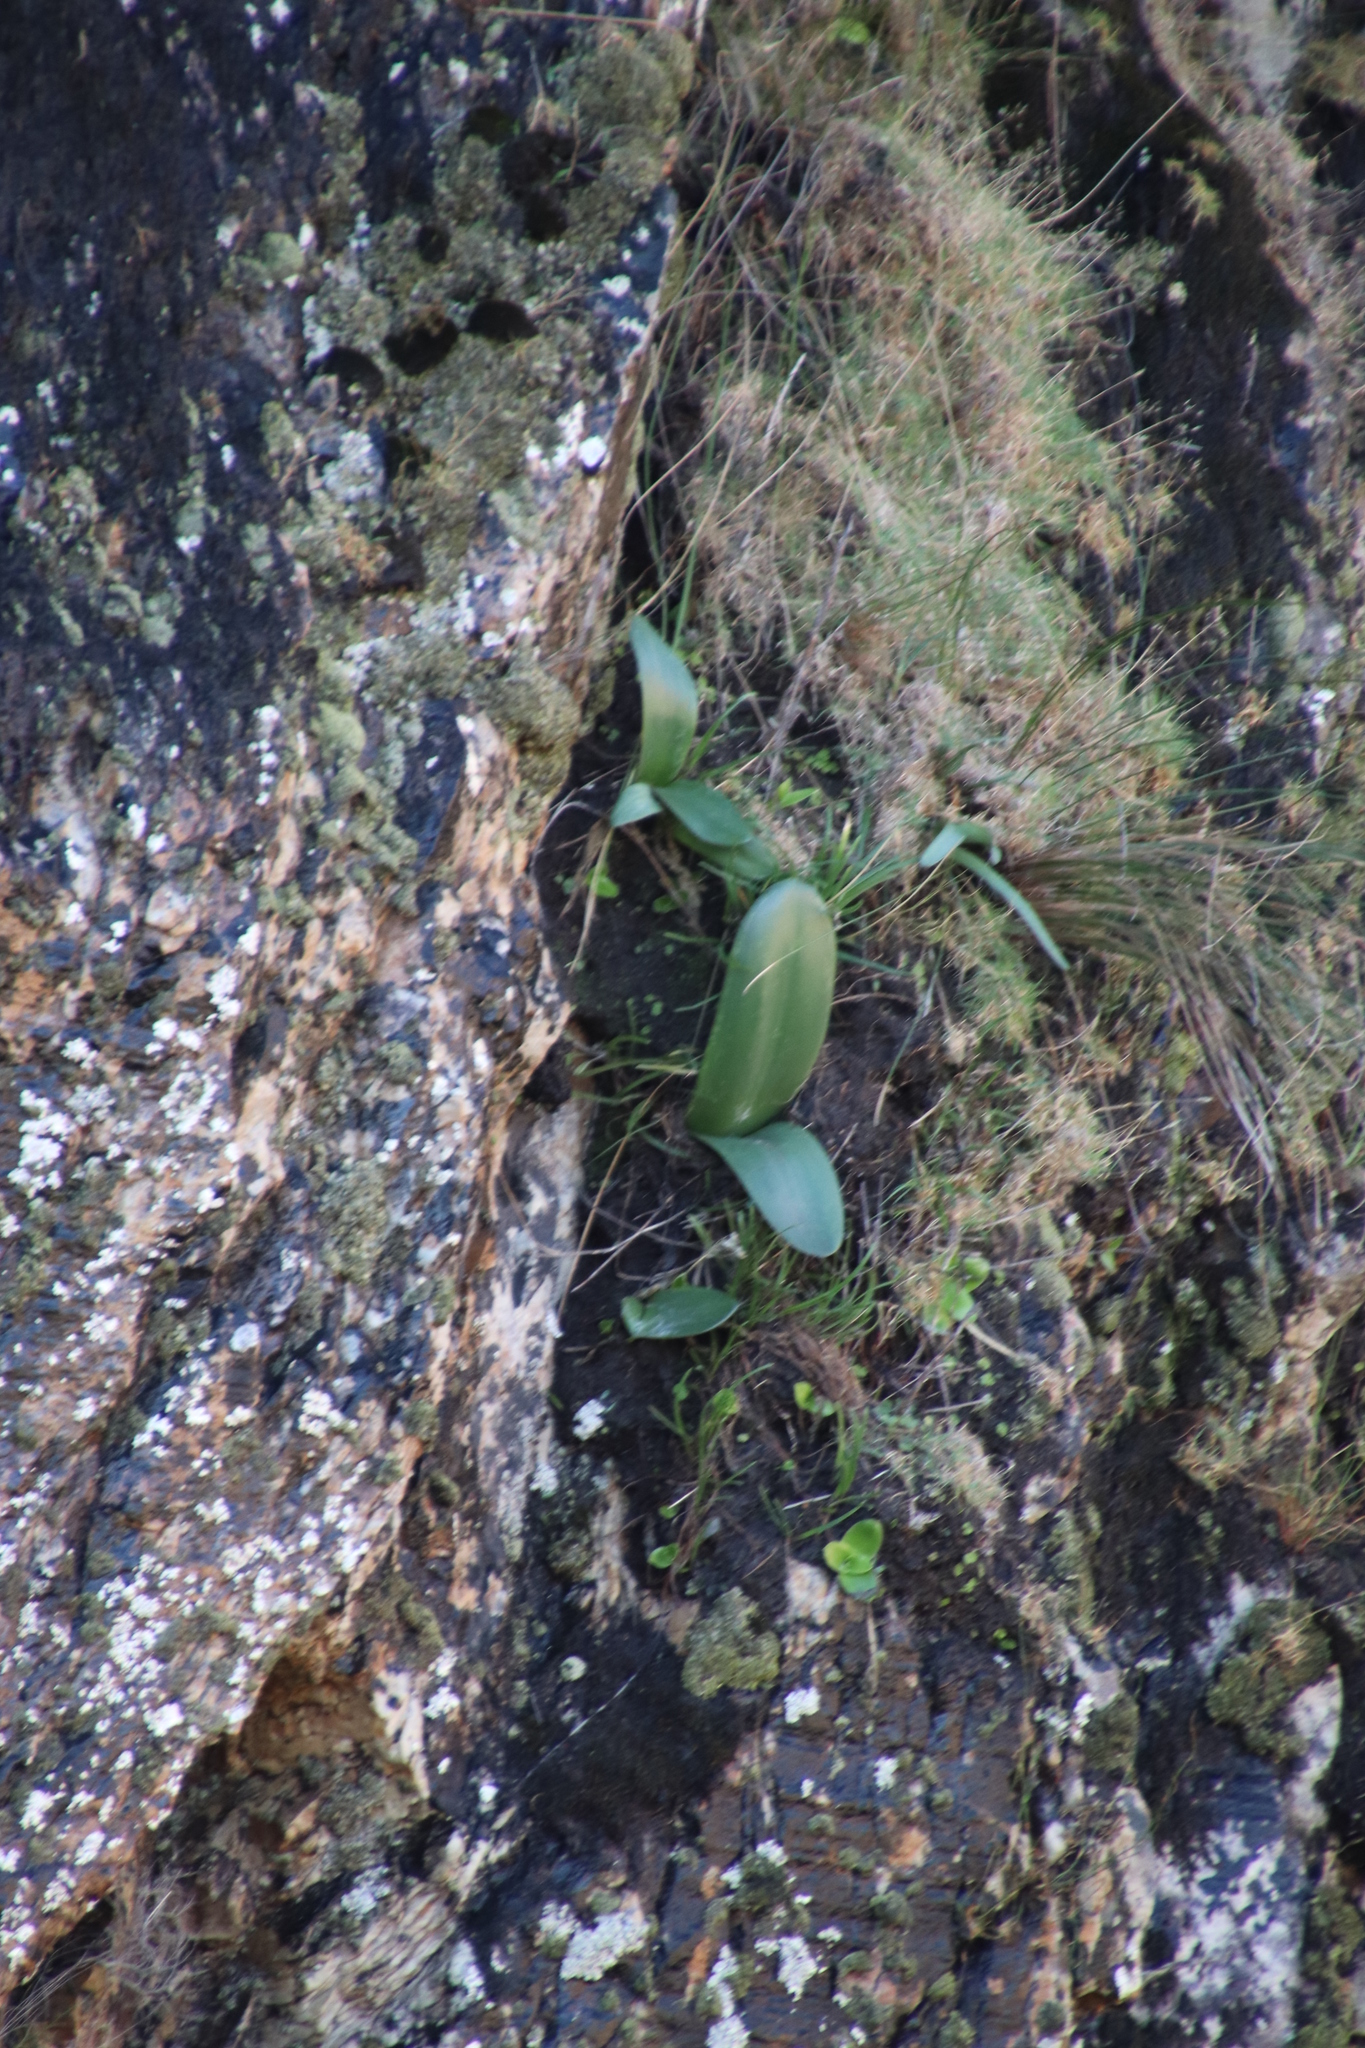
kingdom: Plantae
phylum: Tracheophyta
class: Liliopsida
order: Asparagales
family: Amaryllidaceae
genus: Haemanthus
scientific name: Haemanthus coccineus
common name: Cape-tulip
